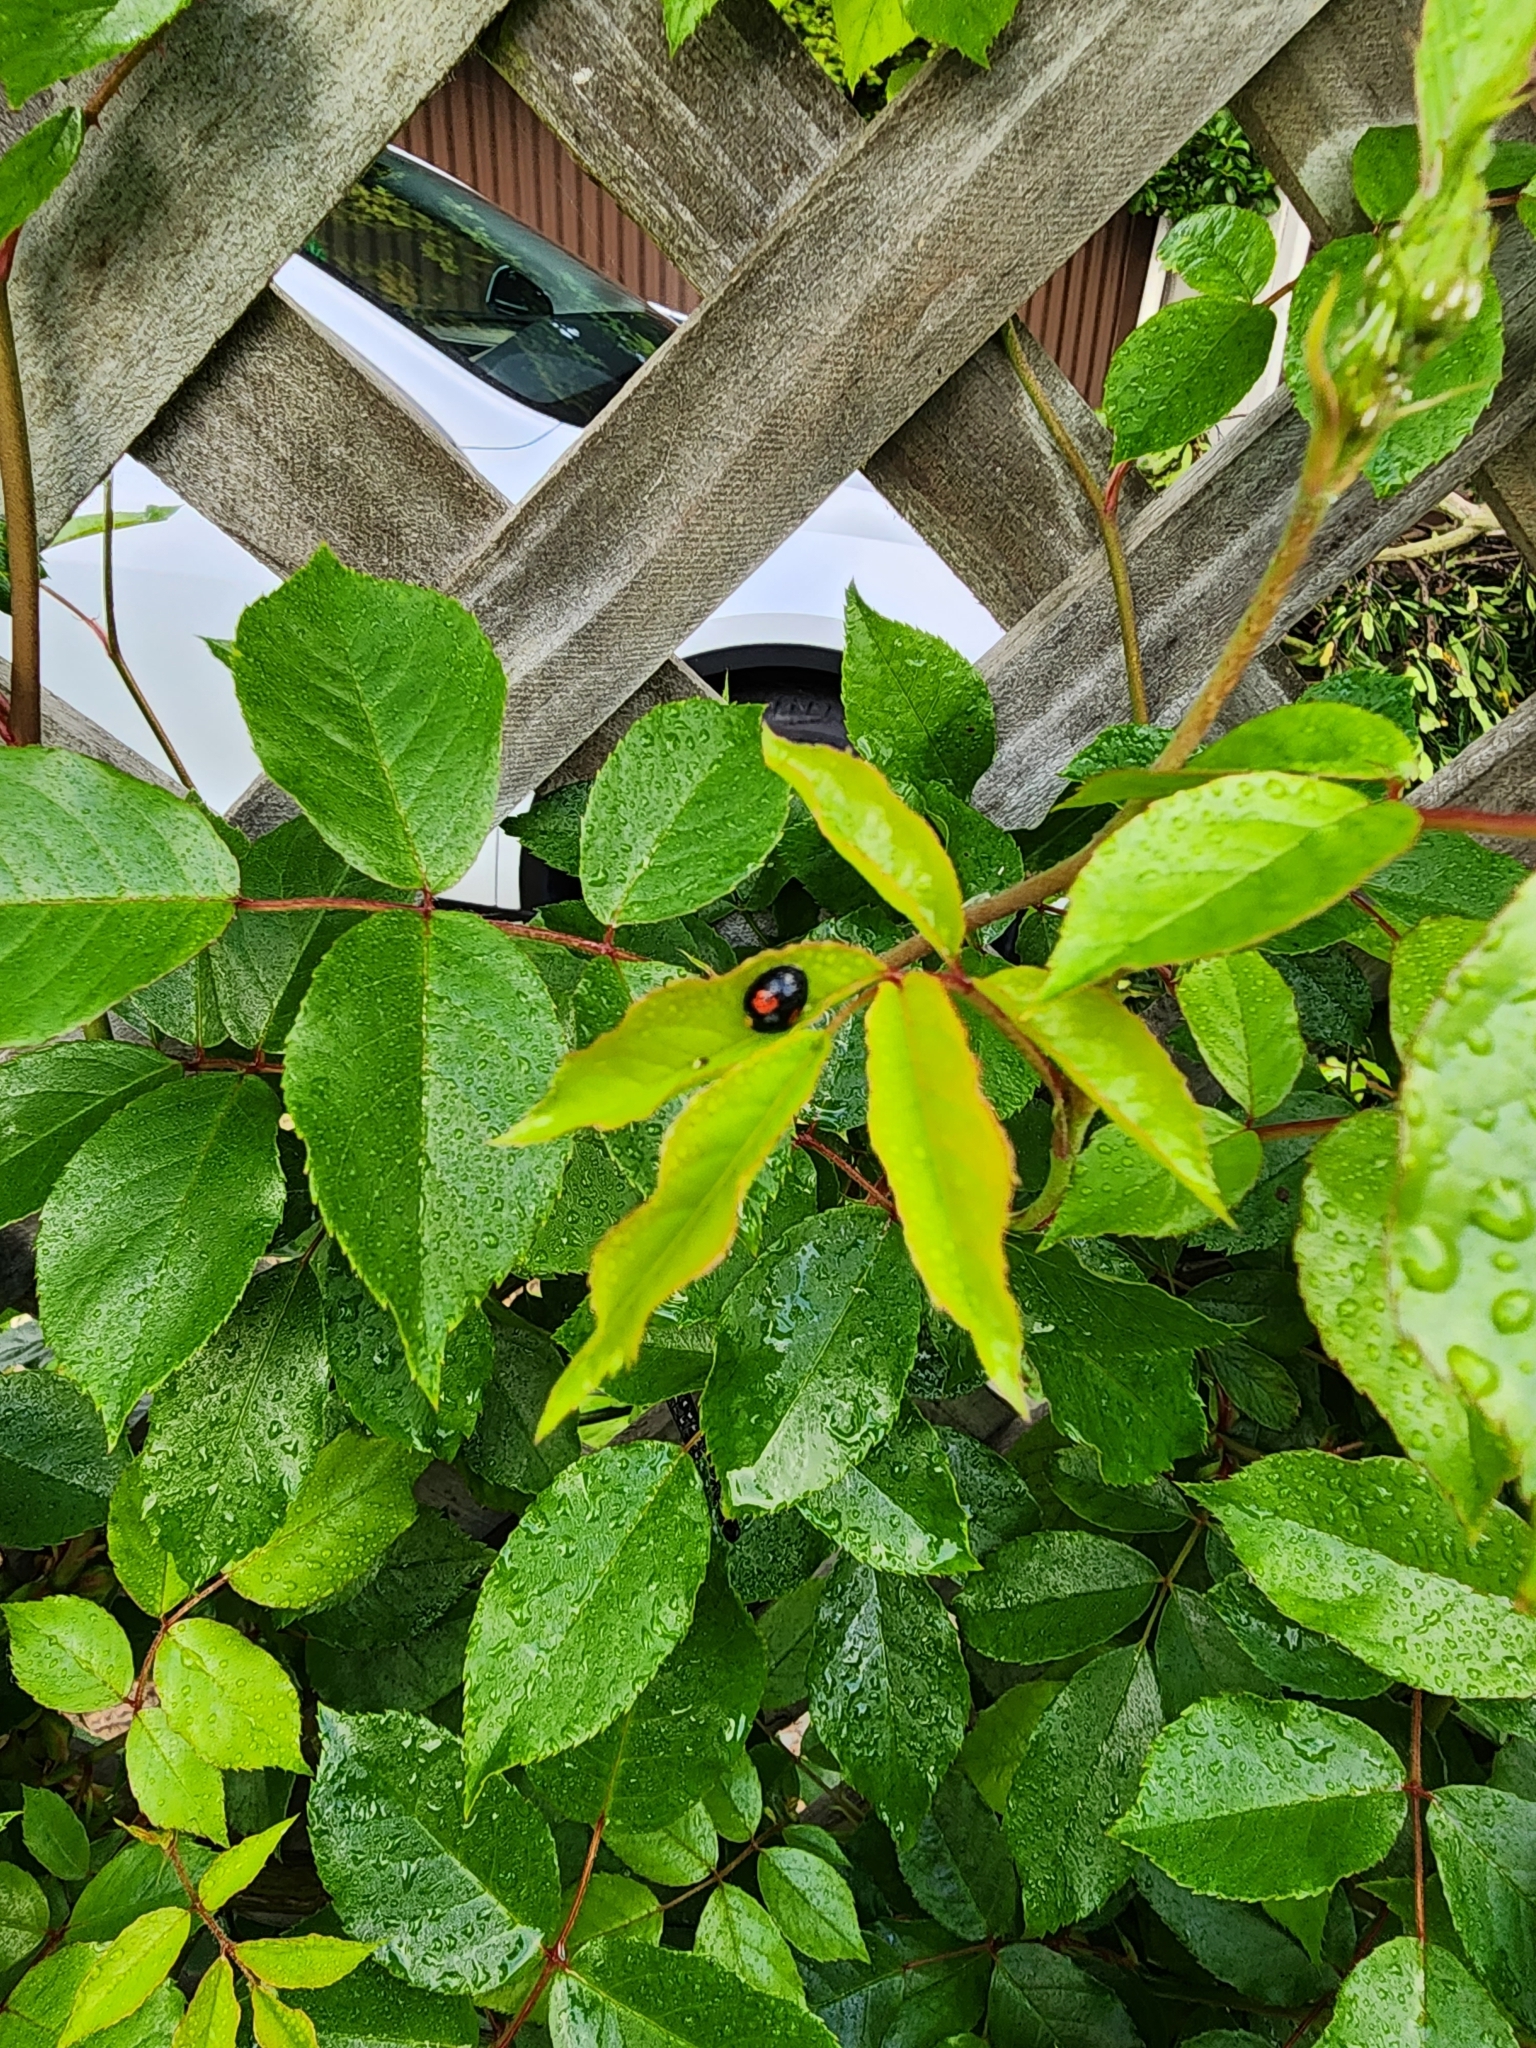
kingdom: Animalia
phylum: Arthropoda
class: Insecta
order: Coleoptera
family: Coccinellidae
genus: Harmonia
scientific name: Harmonia axyridis
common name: Harlequin ladybird
